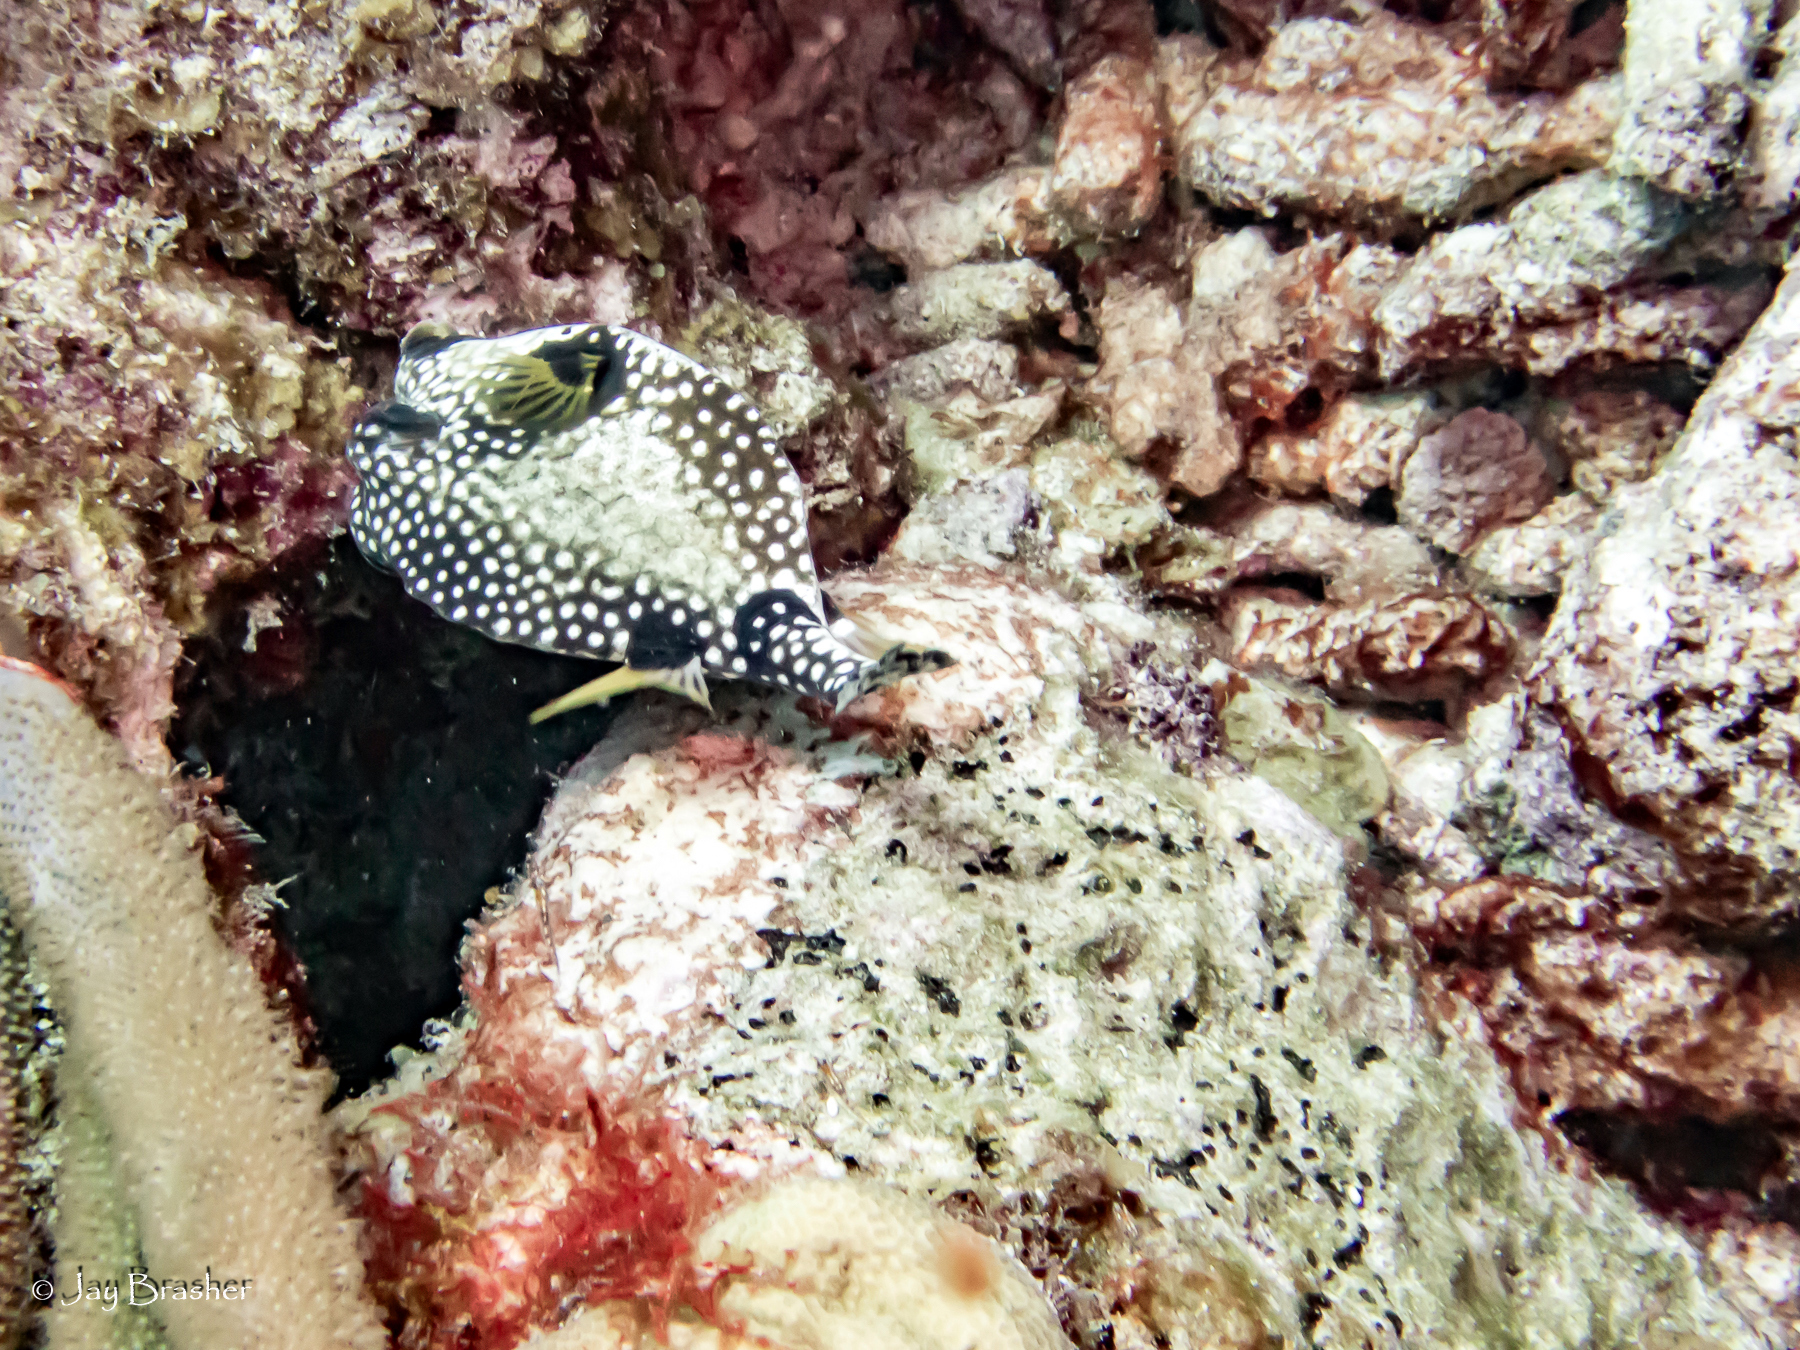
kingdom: Animalia
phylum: Porifera
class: Demospongiae
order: Clionaida
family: Clionaidae
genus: Cliona
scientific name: Cliona aprica
